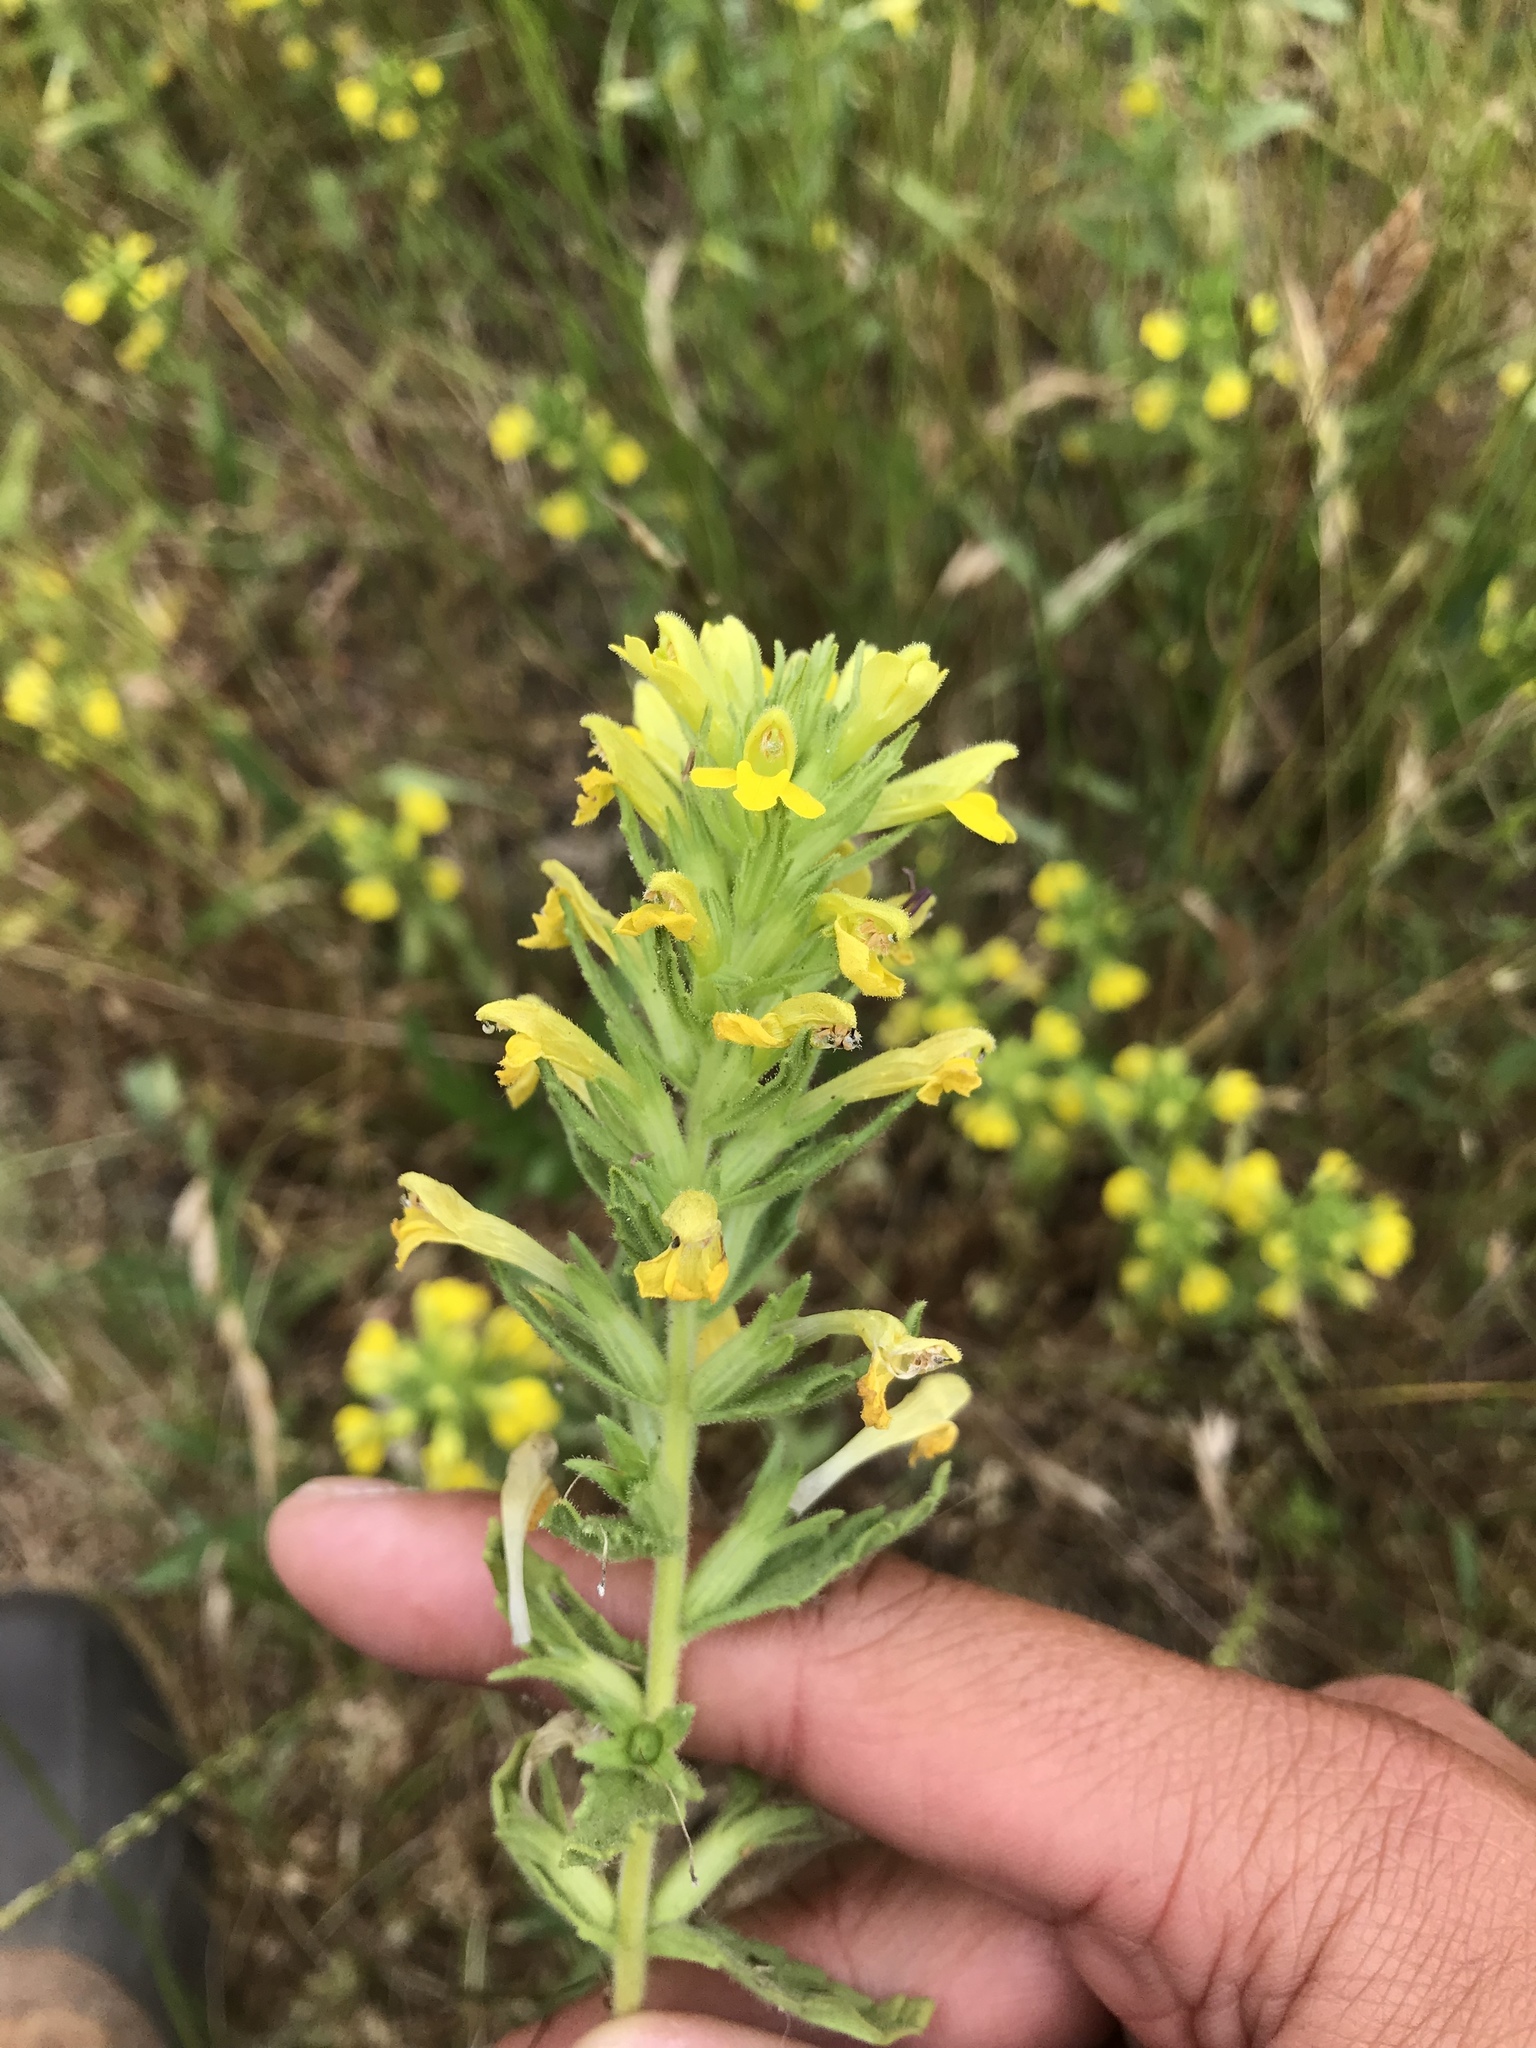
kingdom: Plantae
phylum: Tracheophyta
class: Magnoliopsida
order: Lamiales
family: Orobanchaceae
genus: Bellardia
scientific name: Bellardia viscosa
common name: Sticky parentucellia
